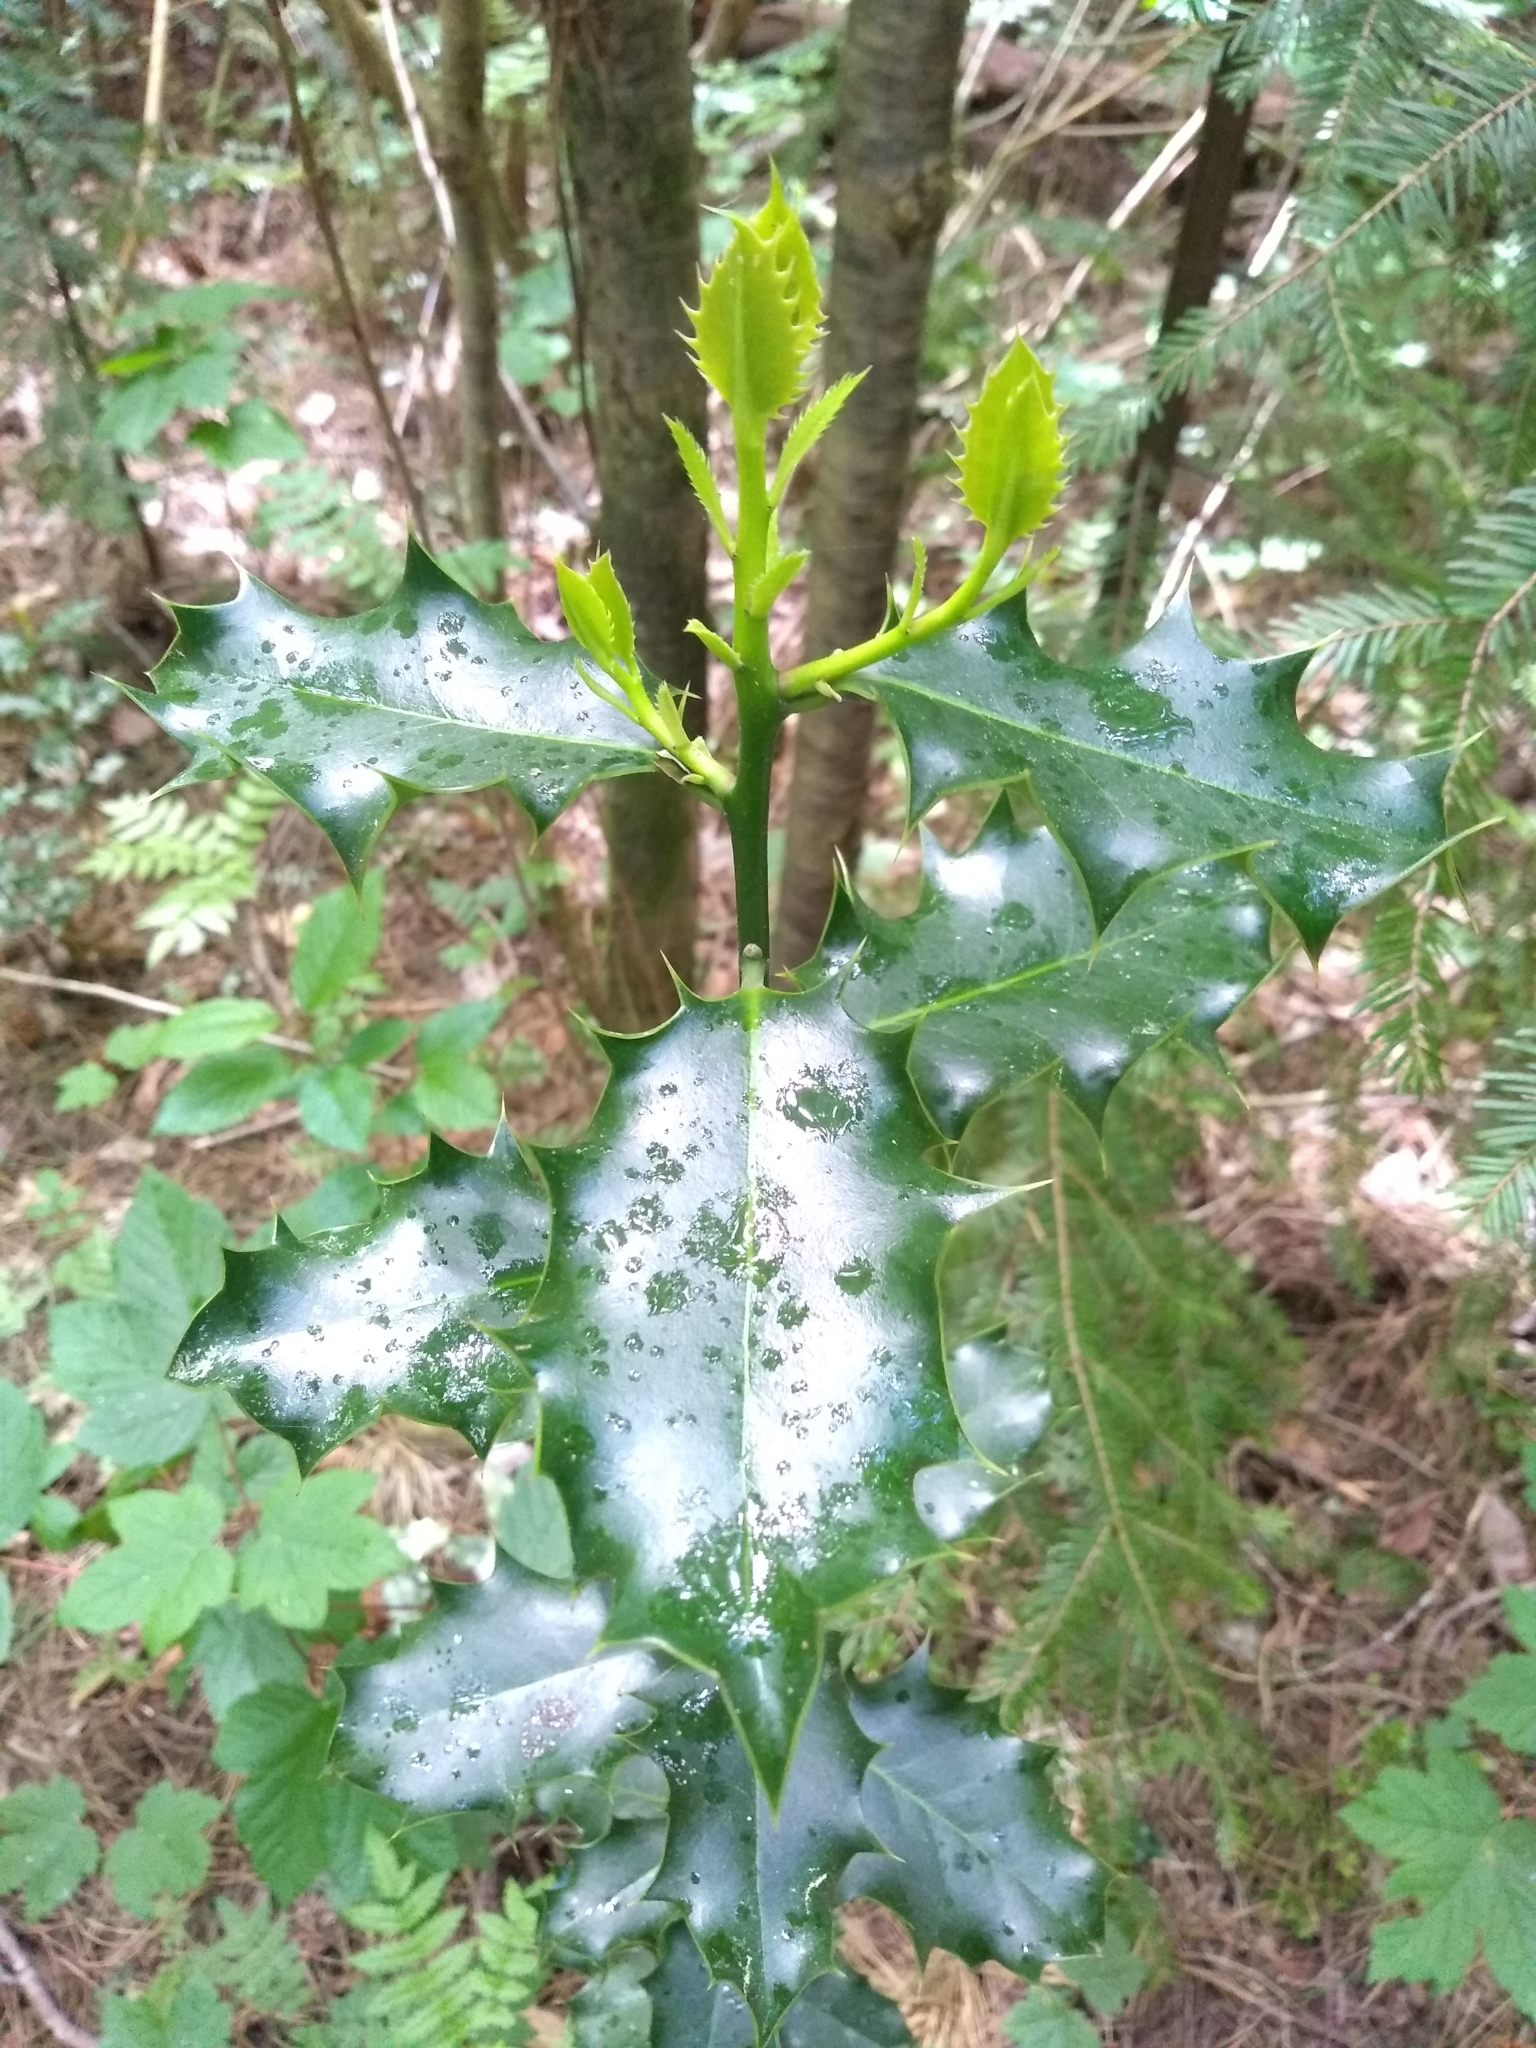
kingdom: Plantae
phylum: Tracheophyta
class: Magnoliopsida
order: Aquifoliales
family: Aquifoliaceae
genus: Ilex
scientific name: Ilex aquifolium
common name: English holly
